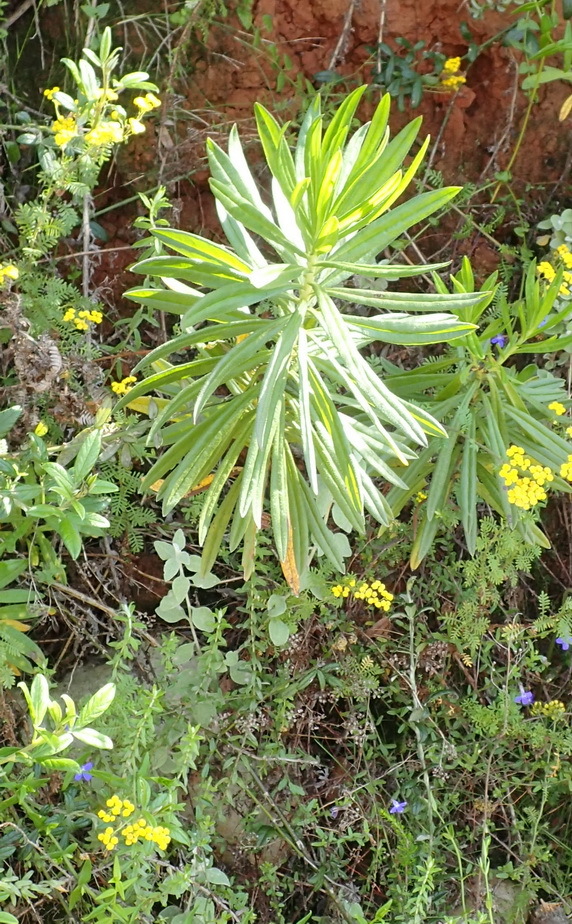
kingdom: Plantae
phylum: Tracheophyta
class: Magnoliopsida
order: Boraginales
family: Boraginaceae
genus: Lobostemon
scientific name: Lobostemon belliformis
